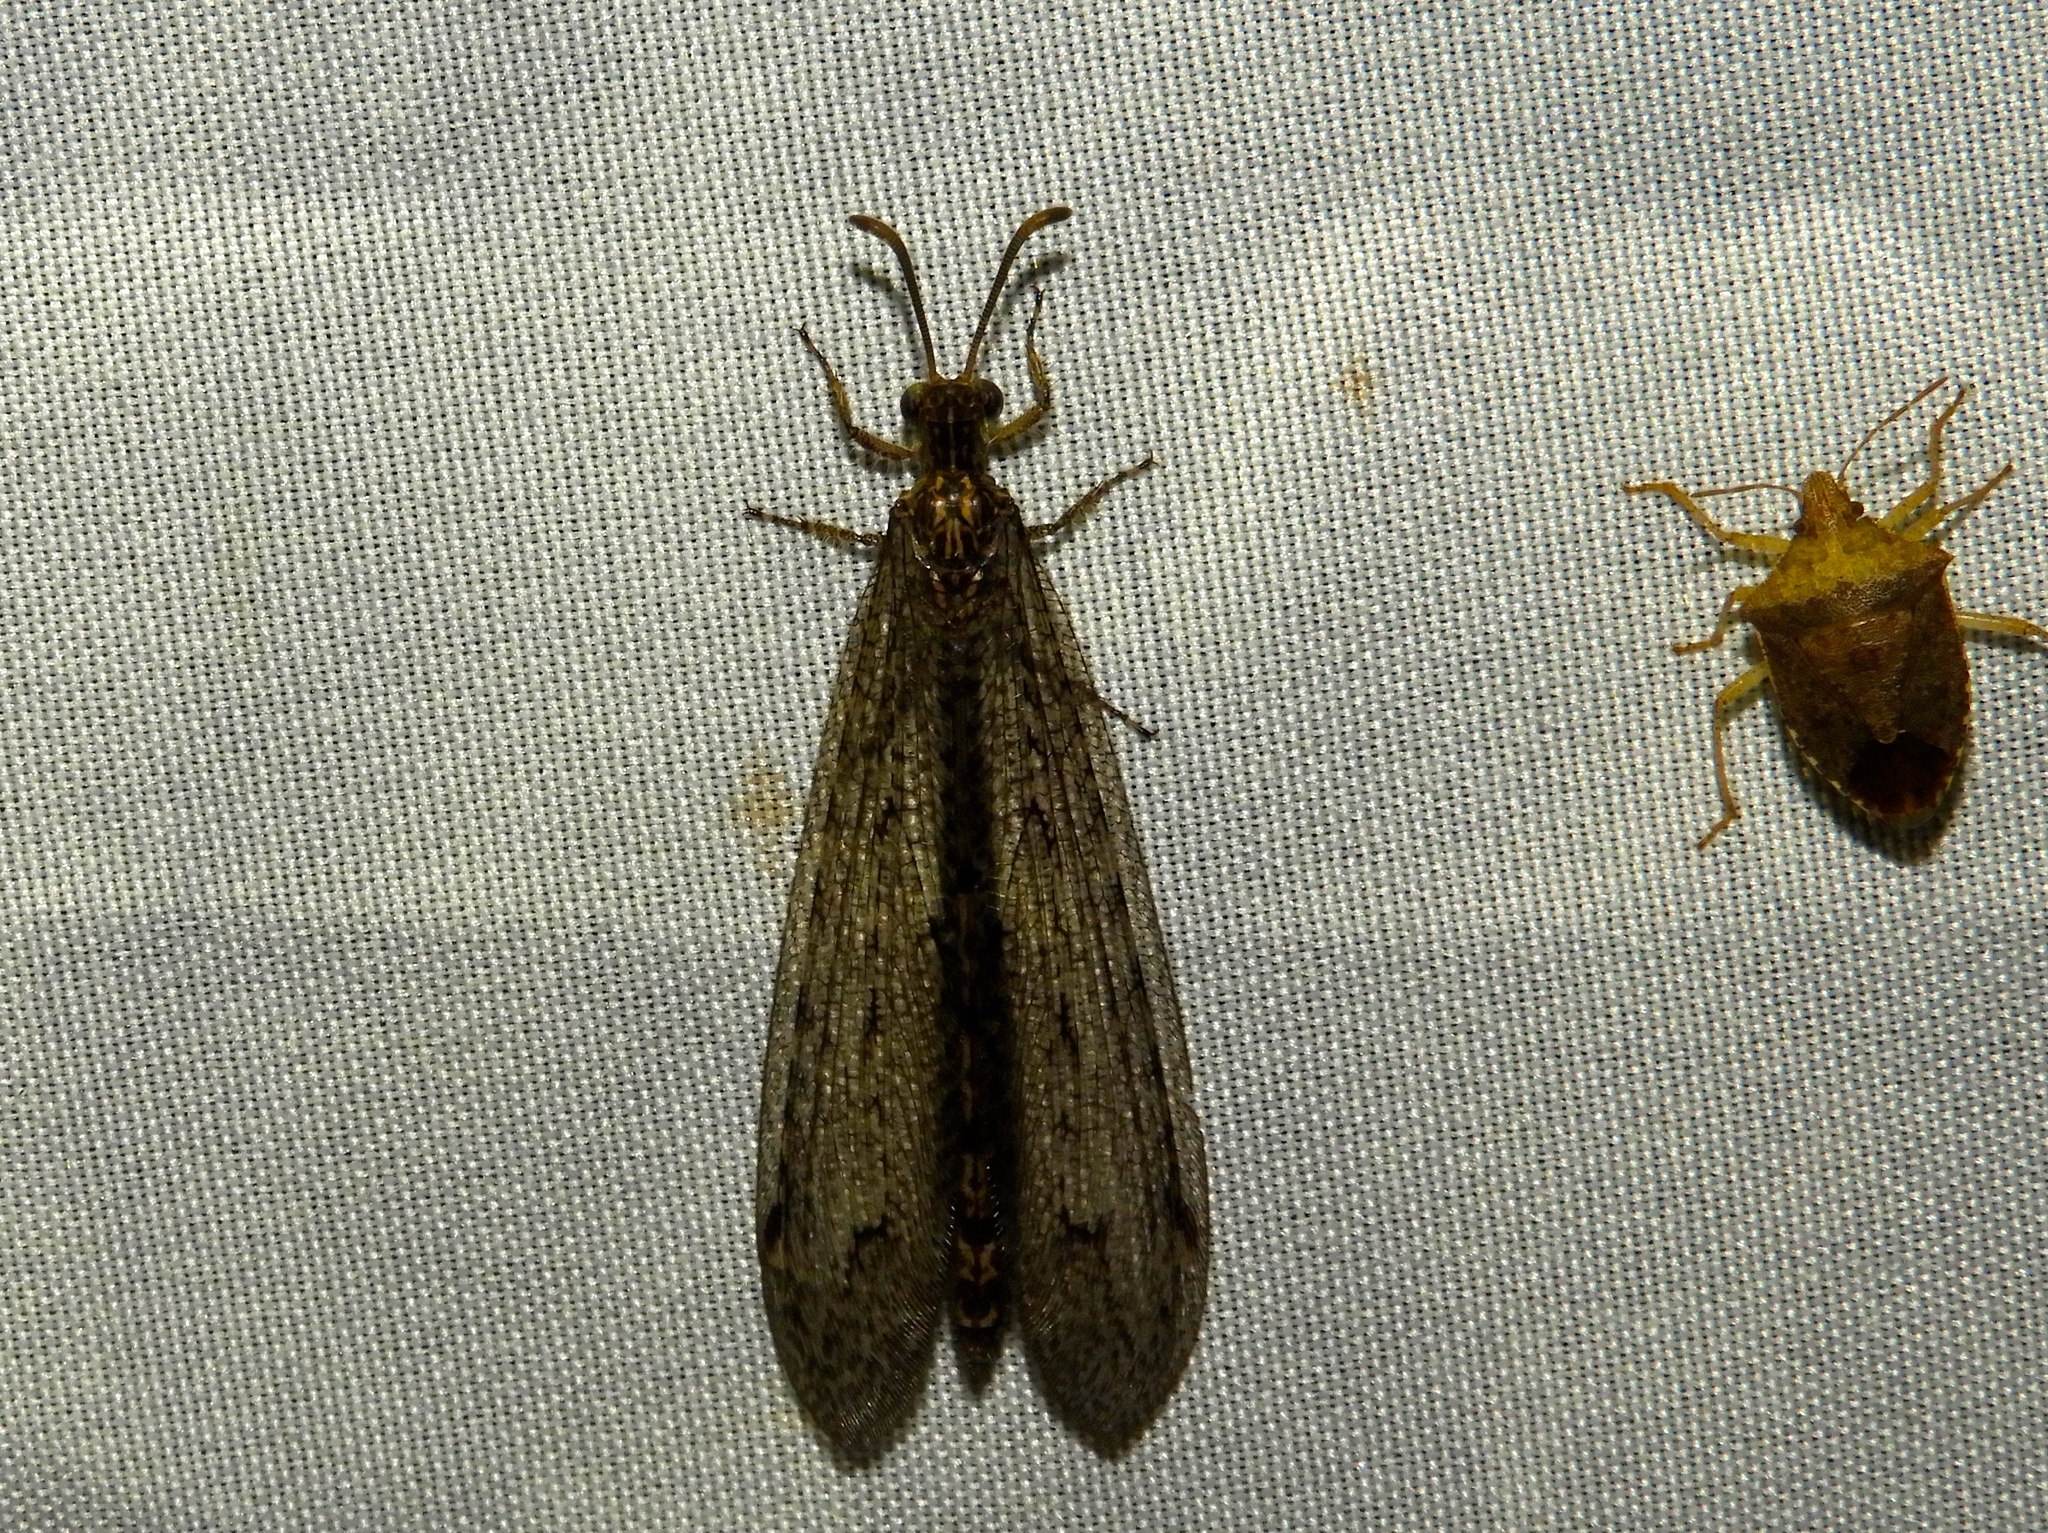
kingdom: Animalia
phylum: Arthropoda
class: Insecta
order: Neuroptera
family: Myrmeleontidae
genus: Vella
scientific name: Vella fallax
